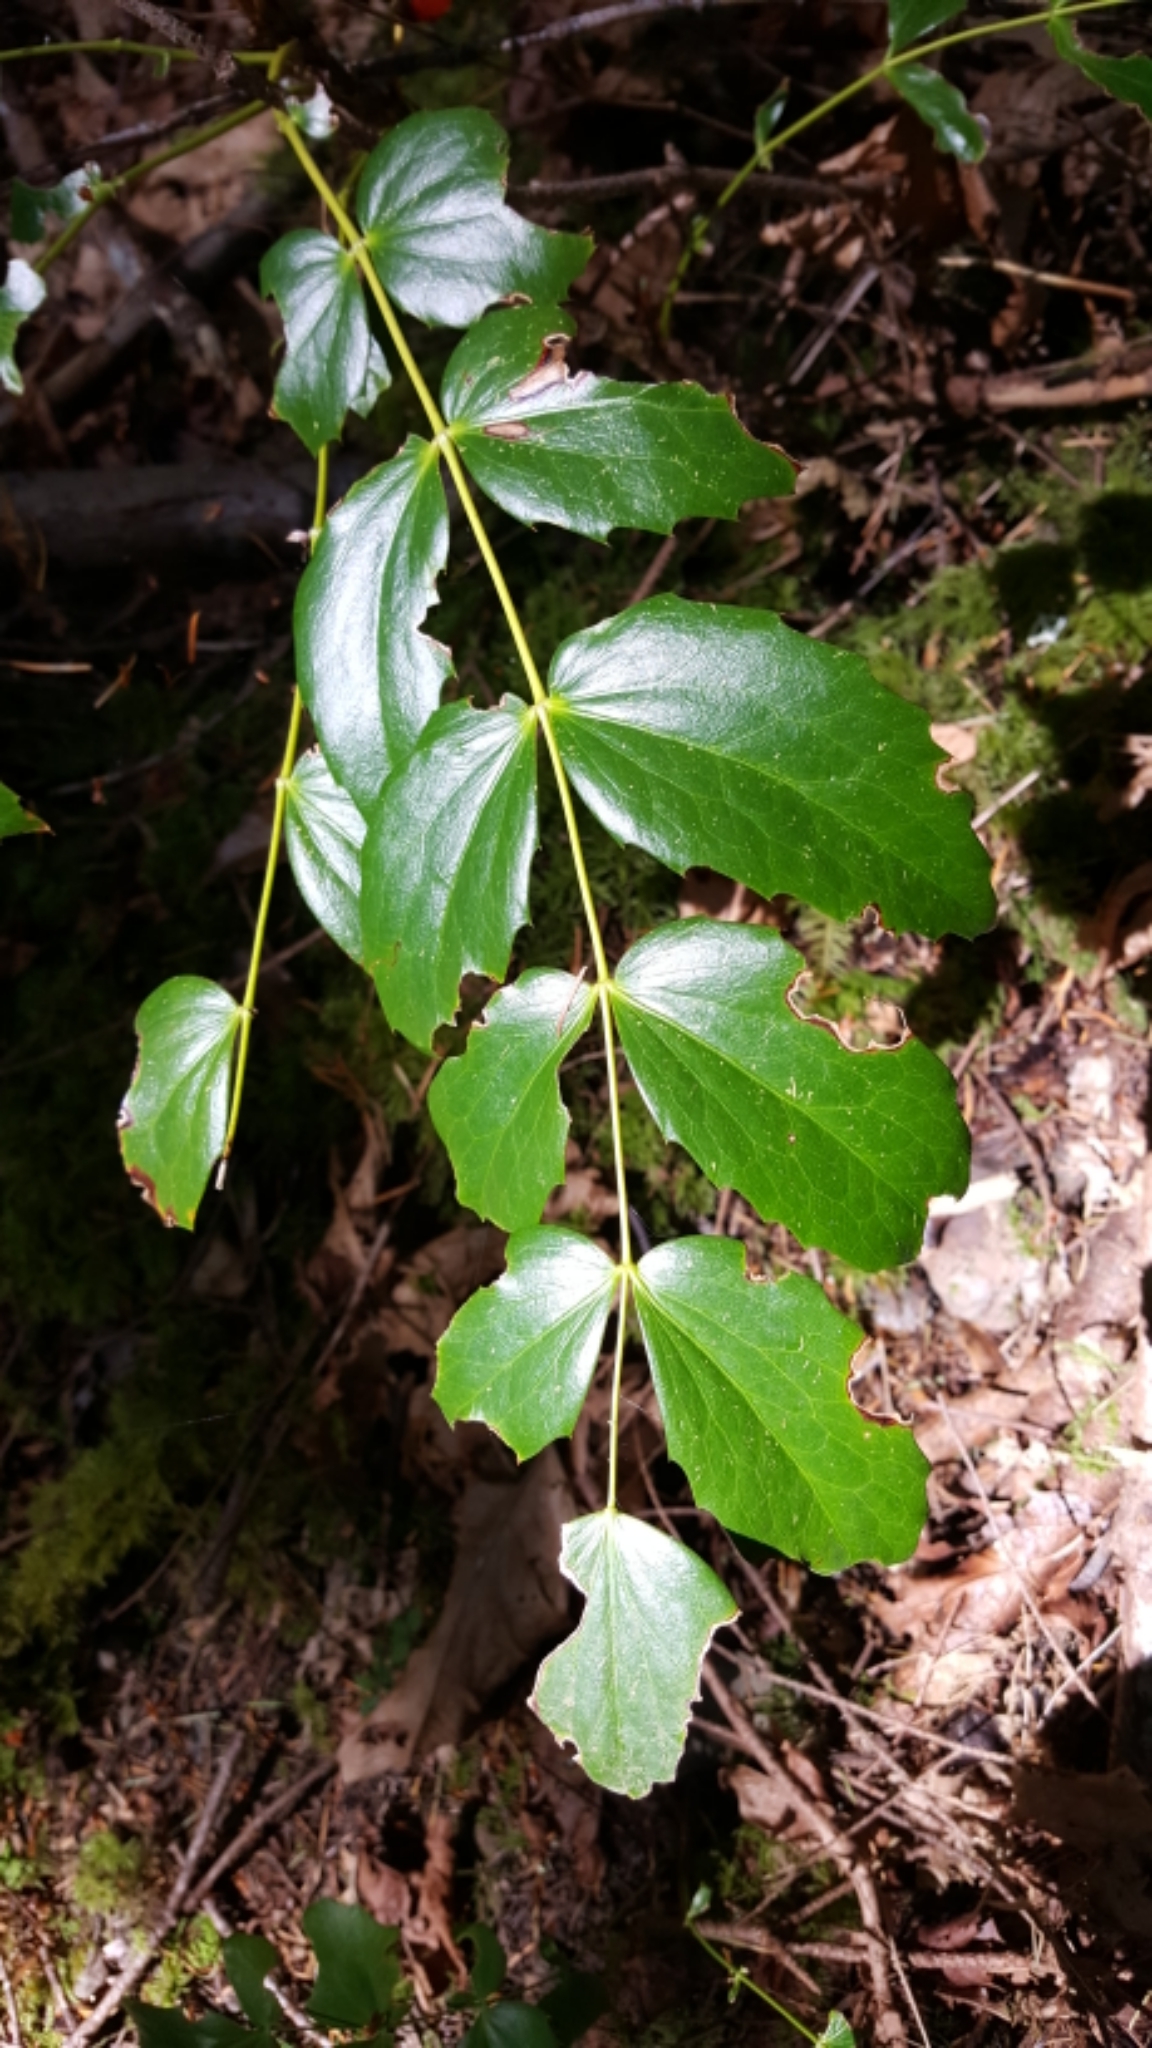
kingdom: Plantae
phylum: Tracheophyta
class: Magnoliopsida
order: Ranunculales
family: Berberidaceae
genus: Mahonia
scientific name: Mahonia nervosa
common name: Cascade oregon-grape
